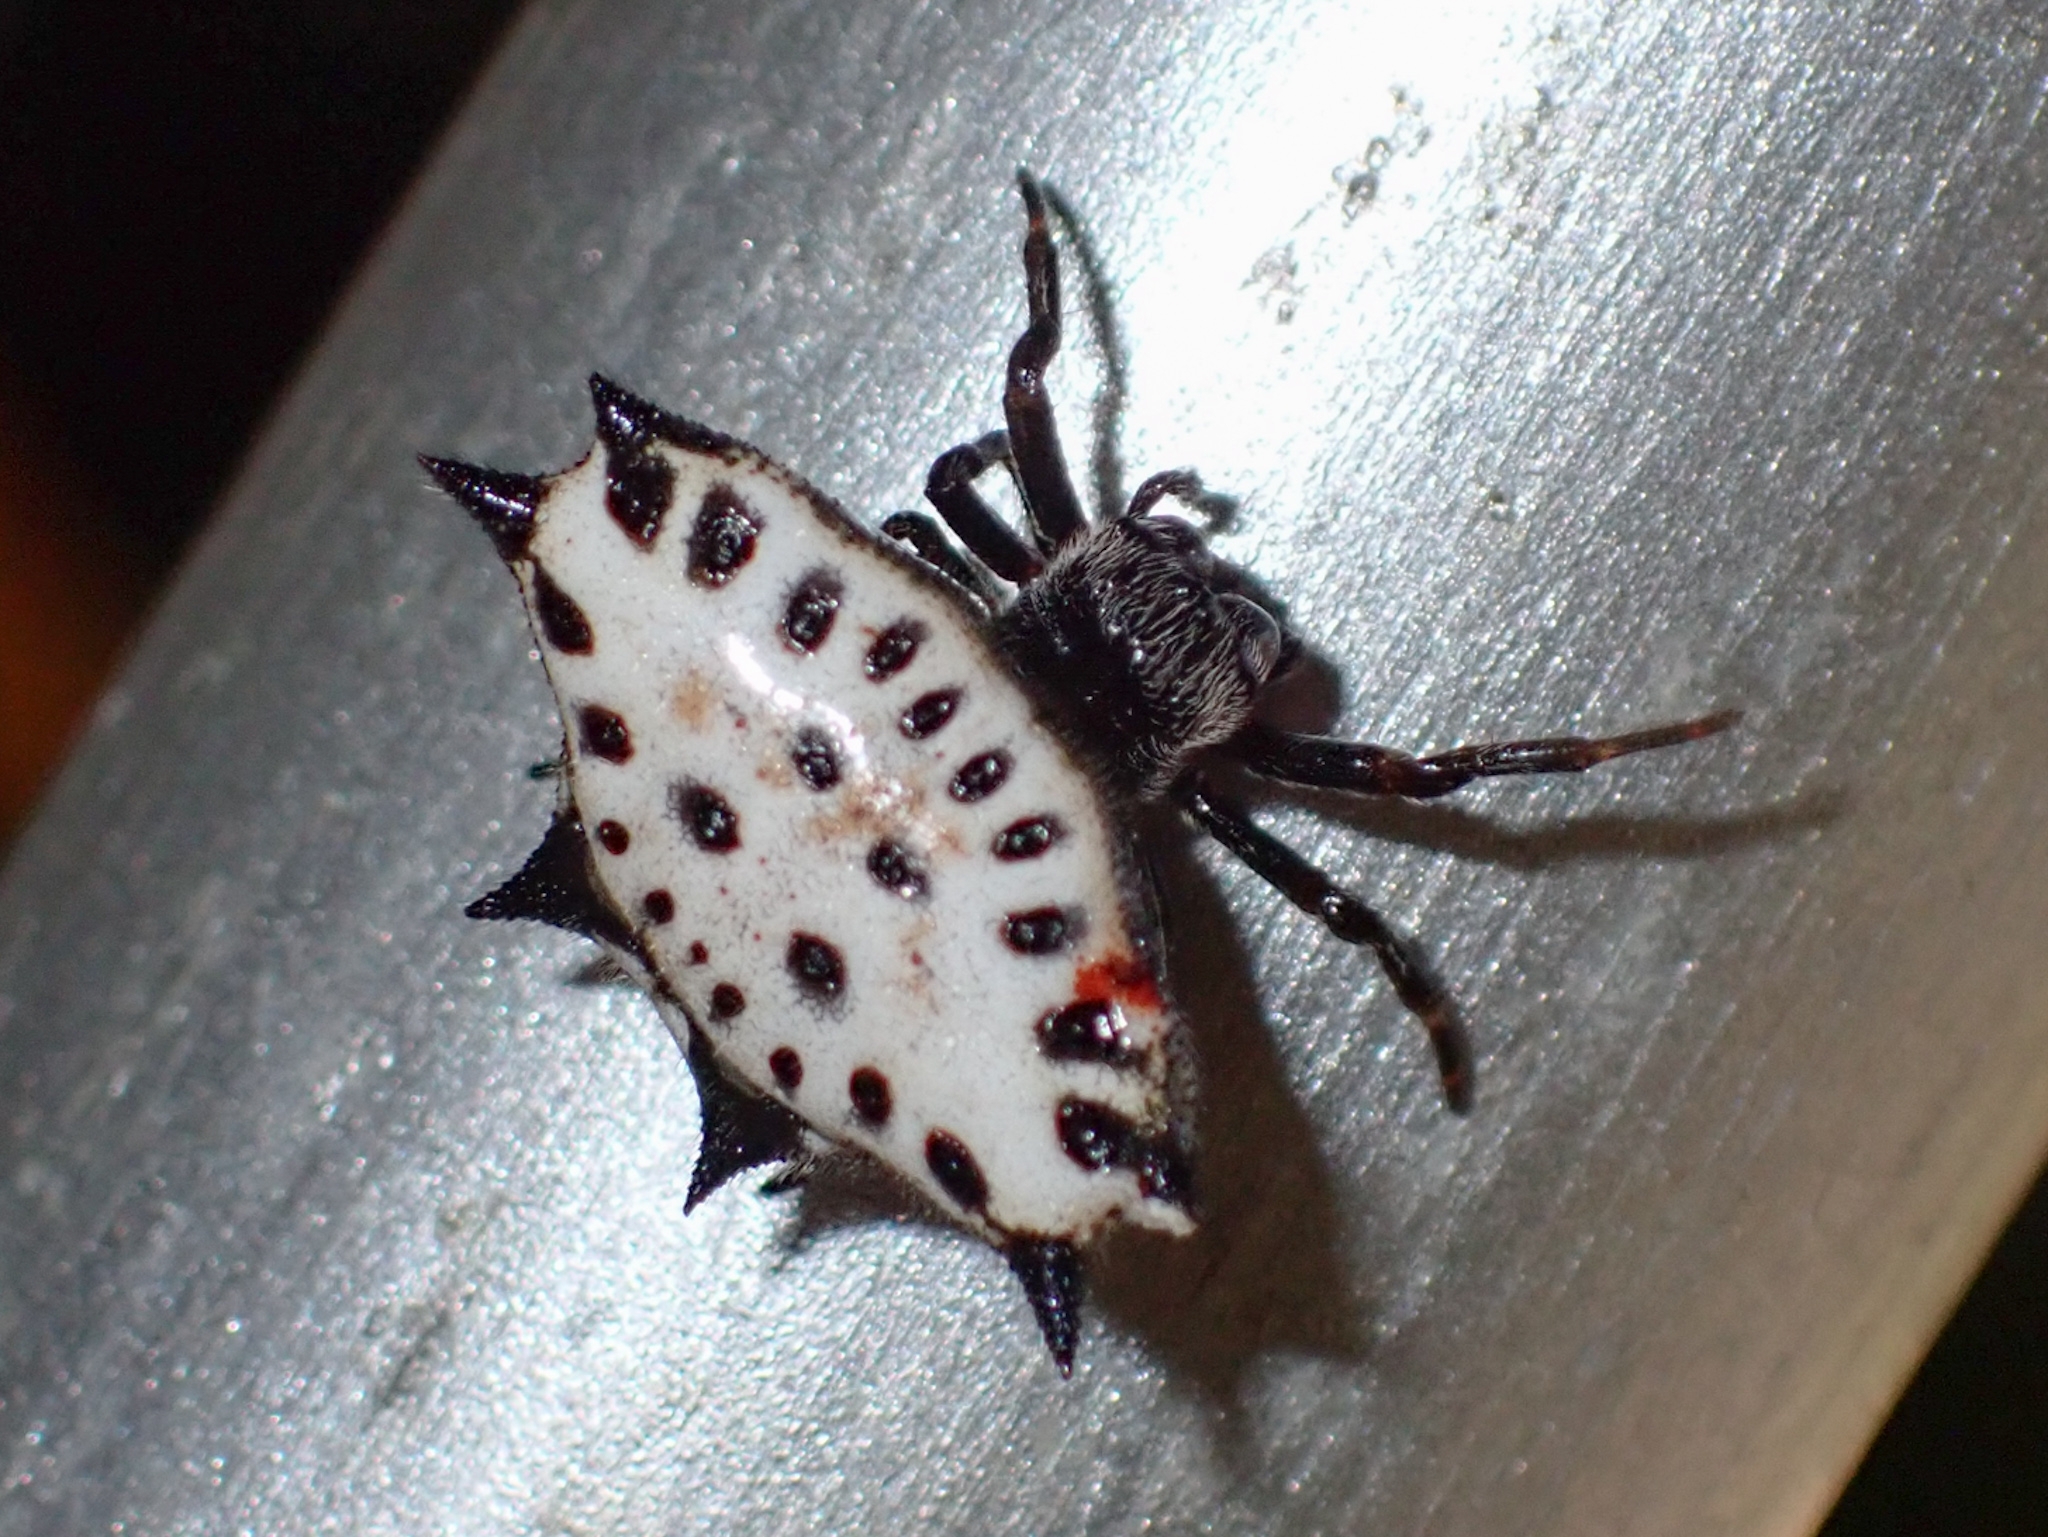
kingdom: Animalia
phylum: Arthropoda
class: Arachnida
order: Araneae
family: Araneidae
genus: Gasteracantha
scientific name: Gasteracantha cancriformis
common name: Orb weavers
